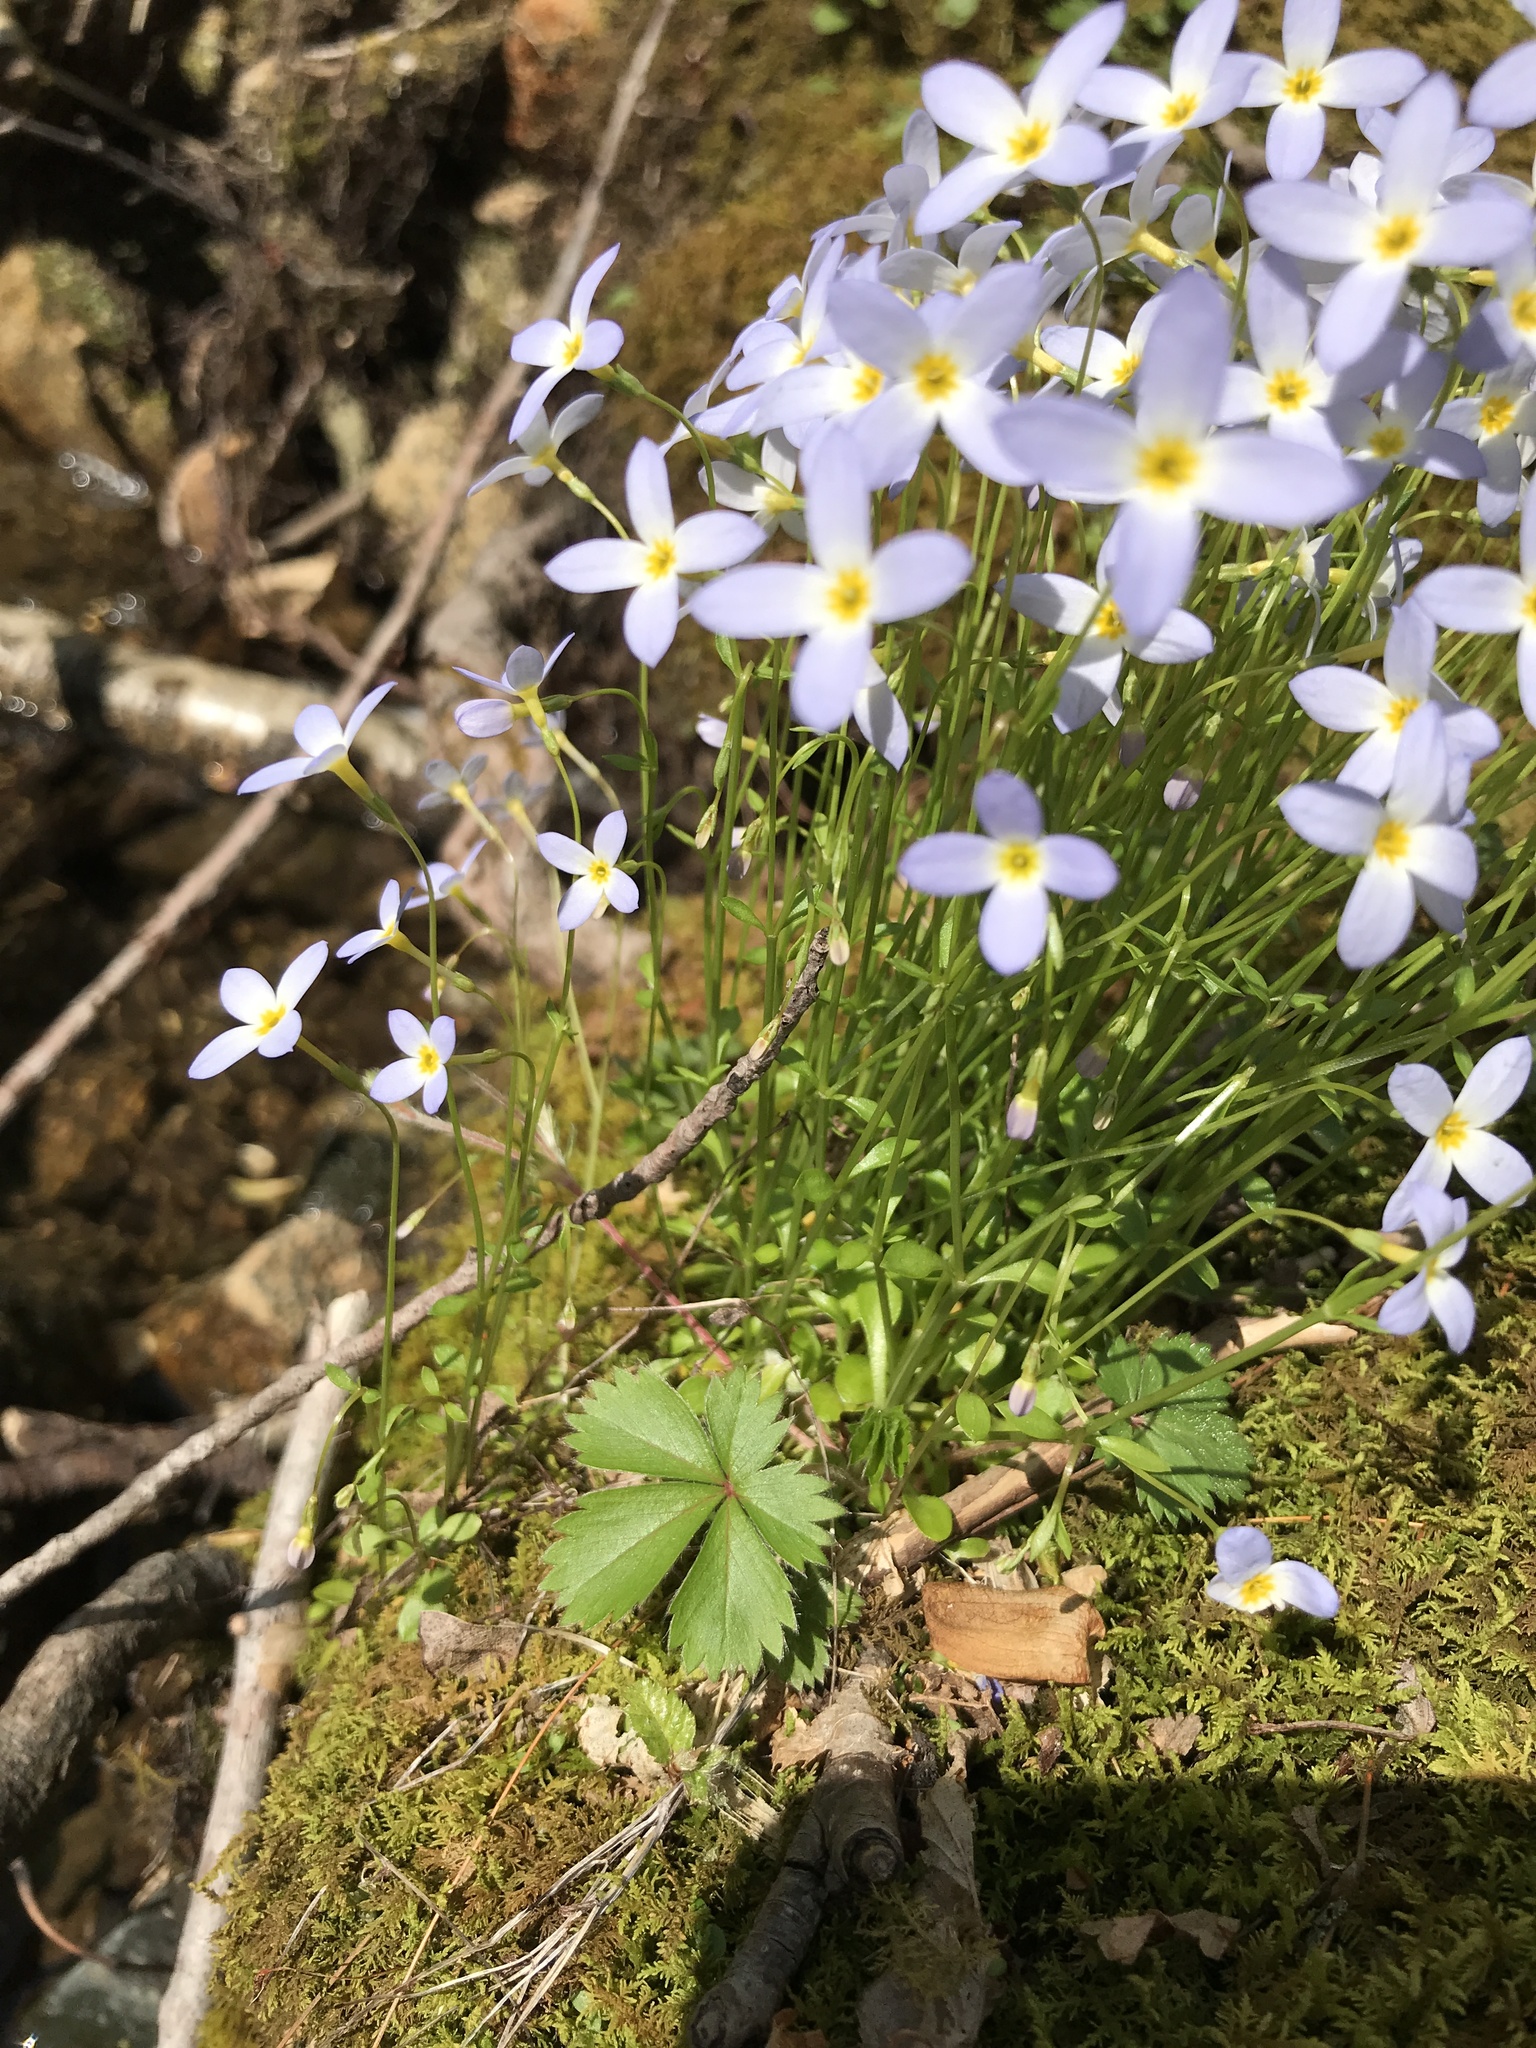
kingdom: Plantae
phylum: Tracheophyta
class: Magnoliopsida
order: Gentianales
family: Rubiaceae
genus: Houstonia
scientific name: Houstonia caerulea
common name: Bluets
